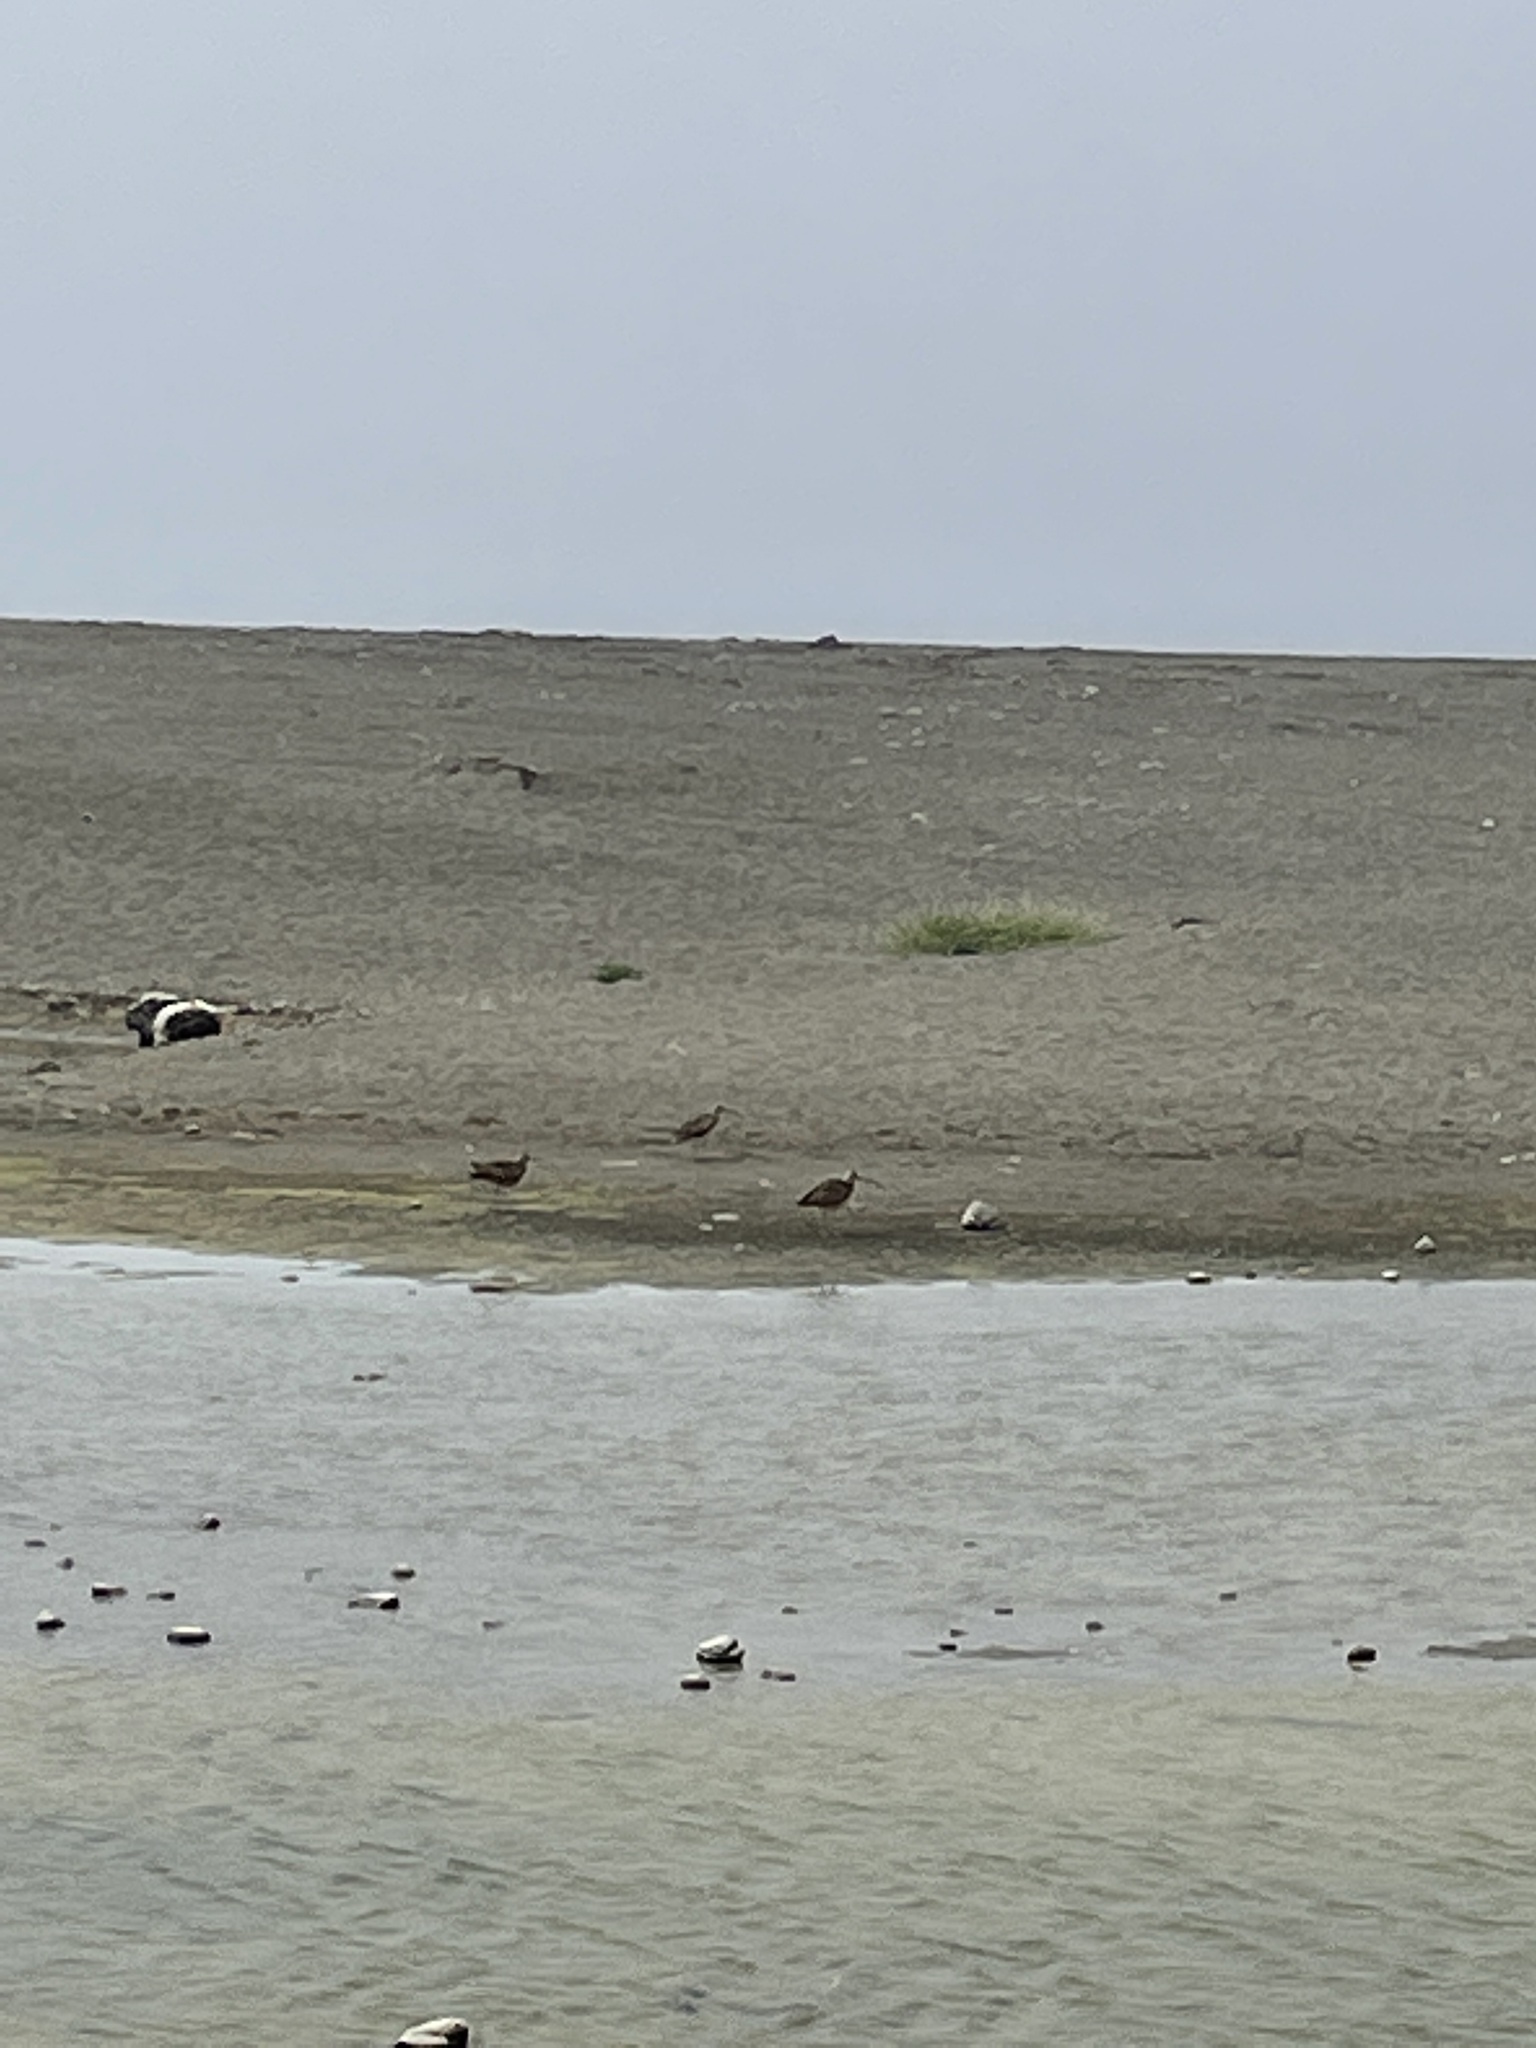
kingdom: Animalia
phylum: Chordata
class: Aves
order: Charadriiformes
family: Scolopacidae
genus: Numenius
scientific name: Numenius americanus
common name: Long-billed curlew
